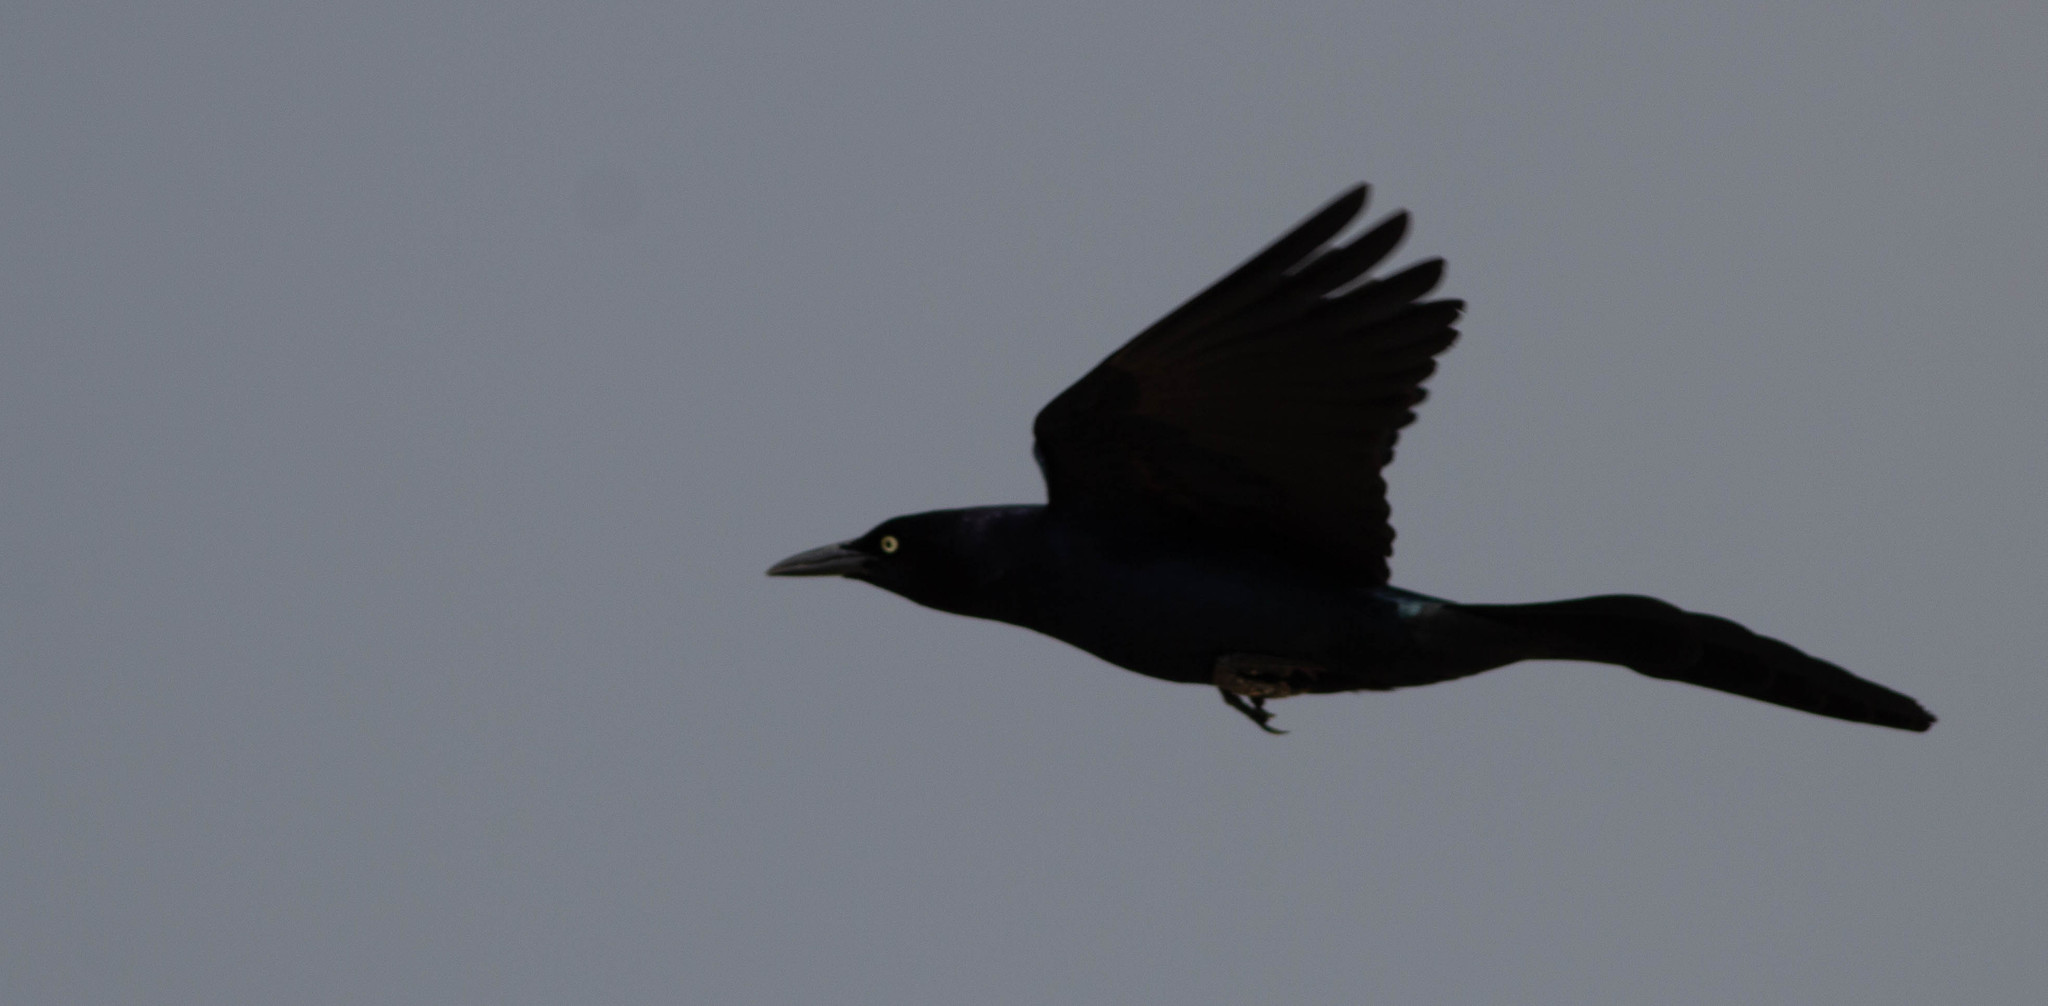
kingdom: Animalia
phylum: Chordata
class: Aves
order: Passeriformes
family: Icteridae
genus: Quiscalus
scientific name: Quiscalus mexicanus
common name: Great-tailed grackle
